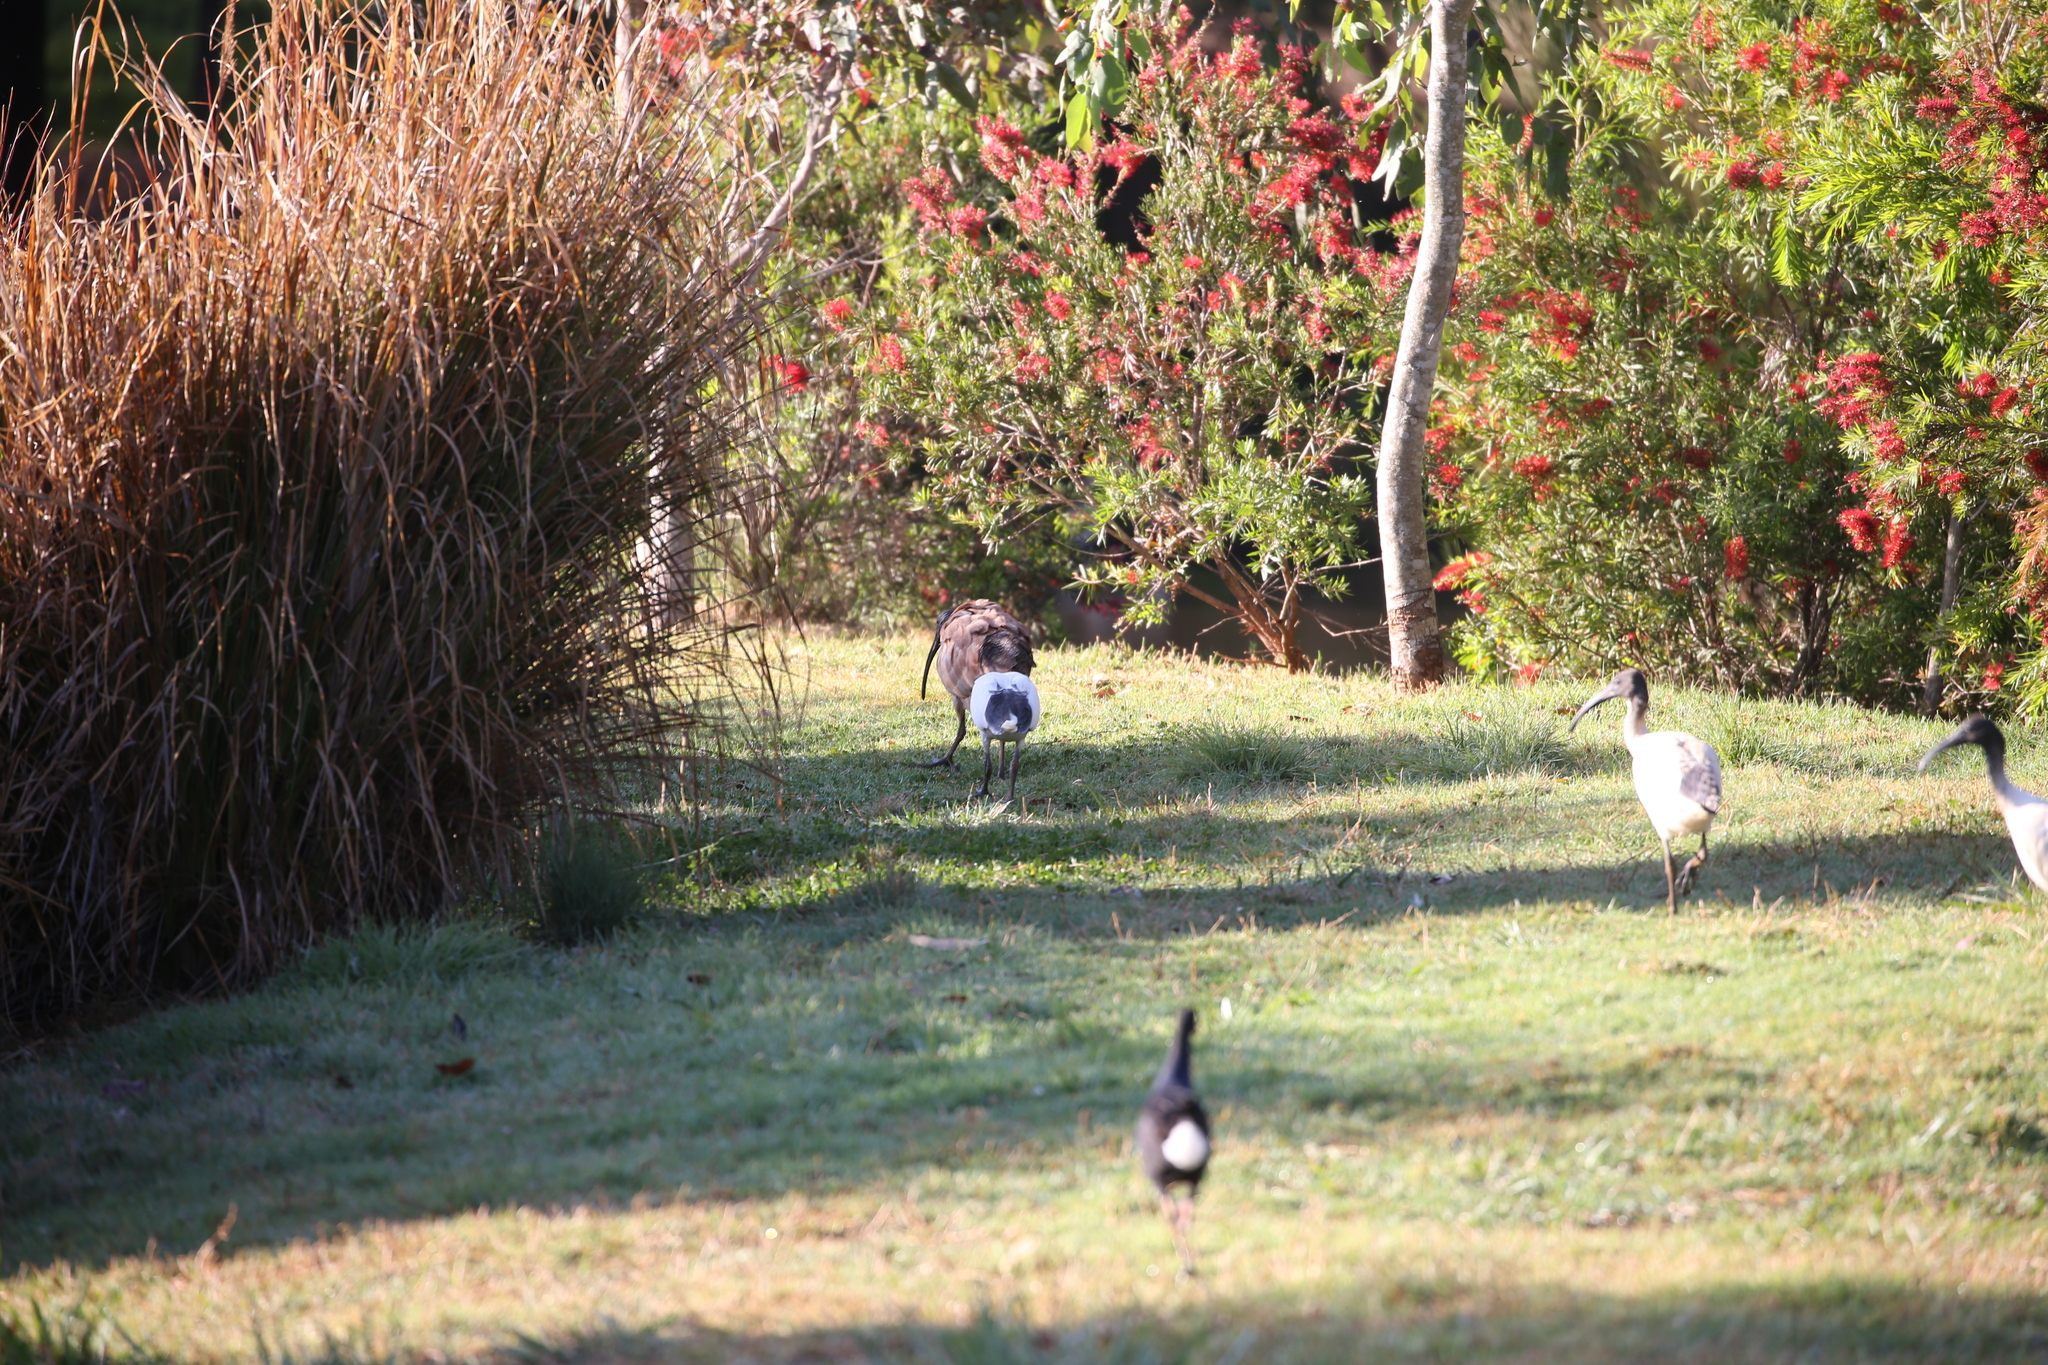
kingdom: Animalia
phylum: Chordata
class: Aves
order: Pelecaniformes
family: Threskiornithidae
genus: Threskiornis
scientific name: Threskiornis molucca
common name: Australian white ibis
